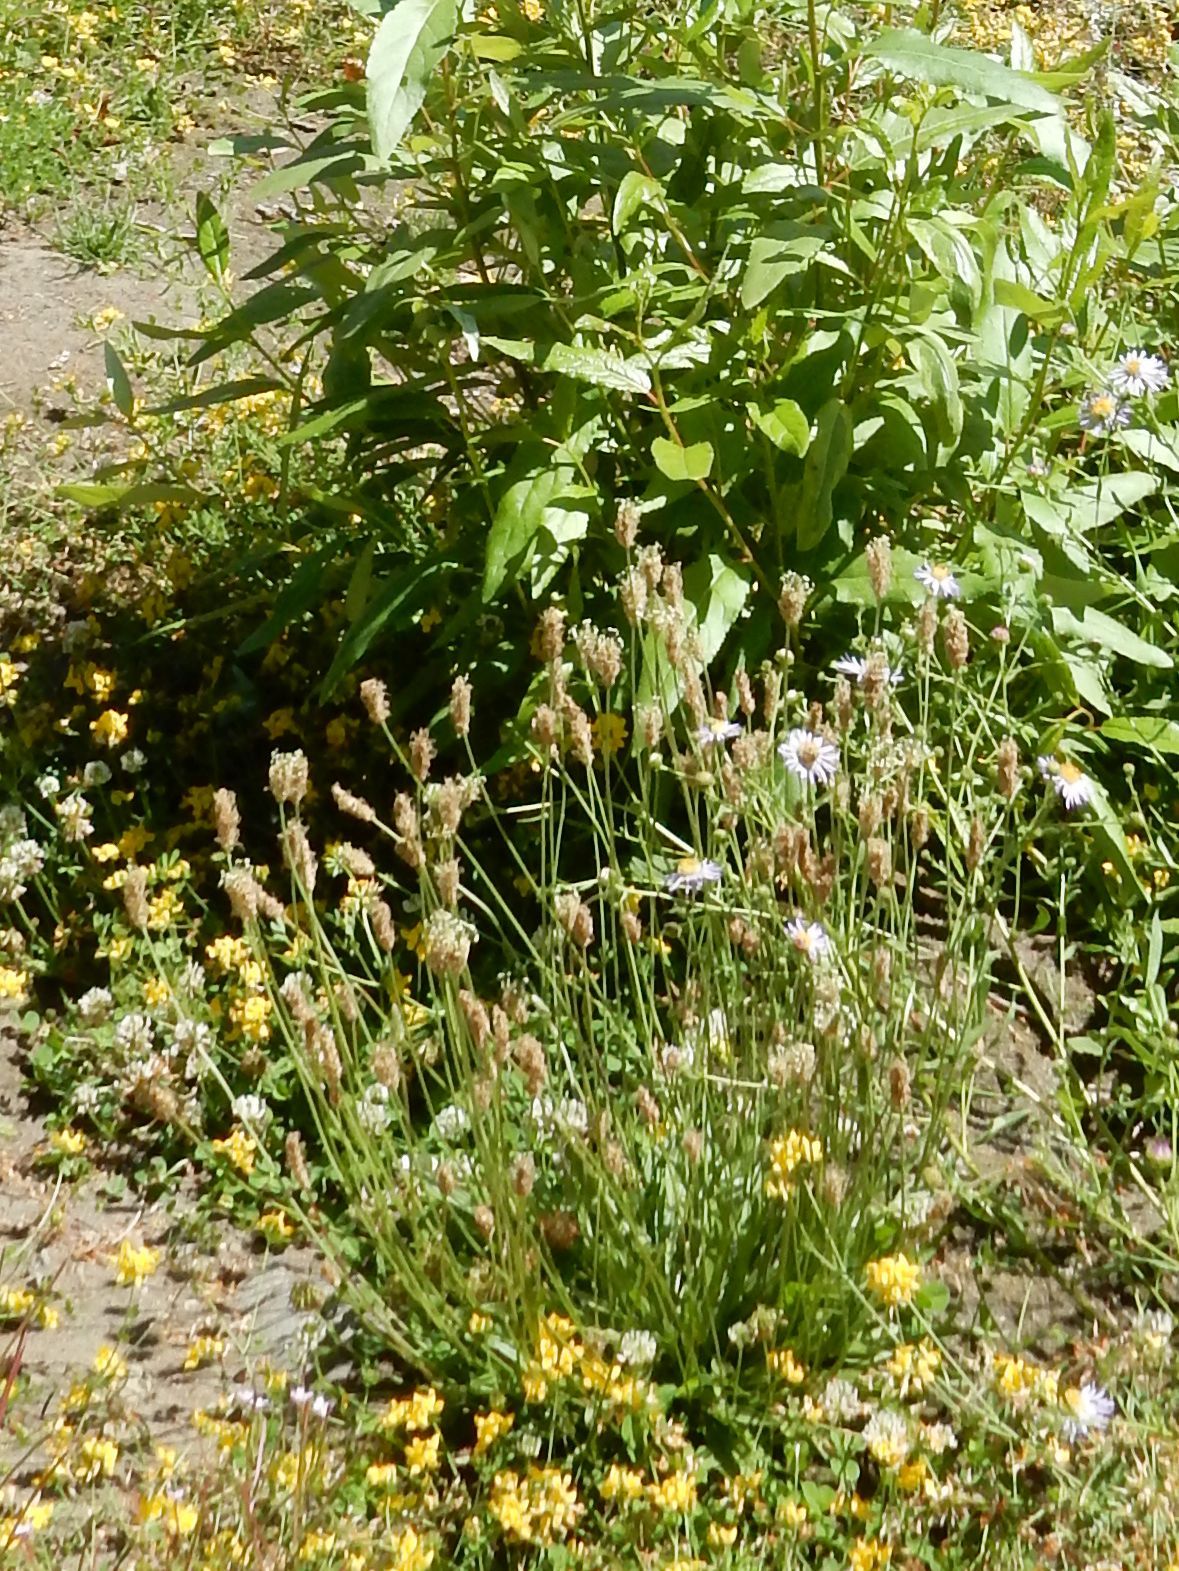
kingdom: Plantae
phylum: Tracheophyta
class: Magnoliopsida
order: Lamiales
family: Plantaginaceae
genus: Plantago
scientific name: Plantago lanceolata
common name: Ribwort plantain
